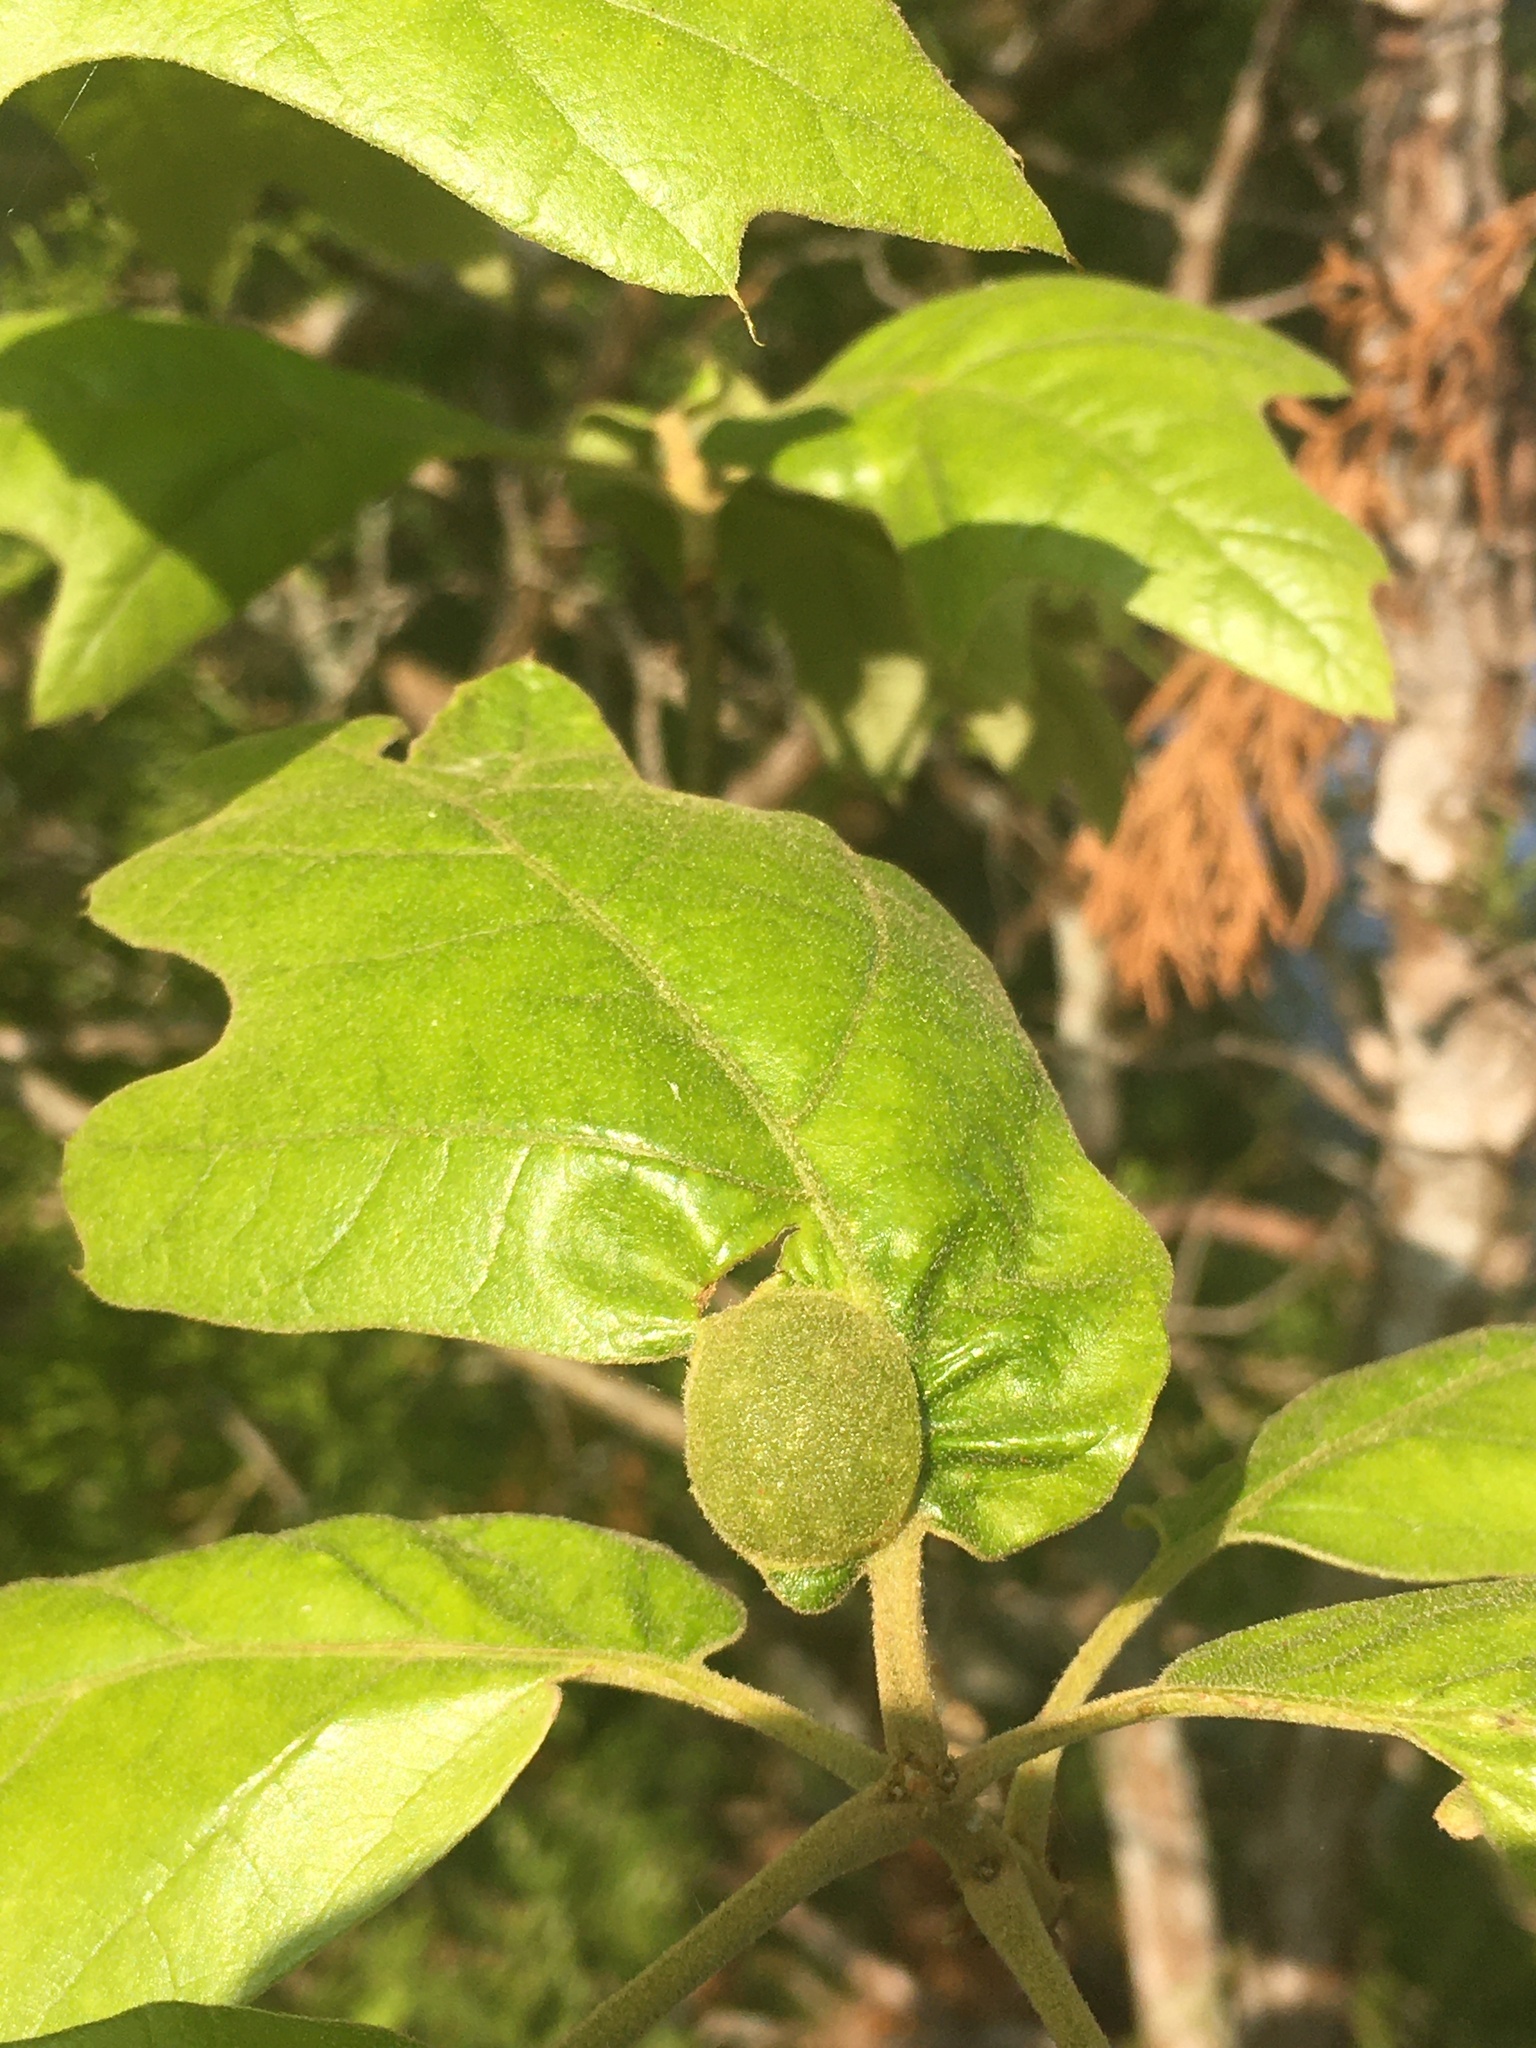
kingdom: Animalia
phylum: Arthropoda
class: Insecta
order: Hymenoptera
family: Cynipidae
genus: Dryocosmus
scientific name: Dryocosmus quercuspalustris
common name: Succulent oak gall wasp
